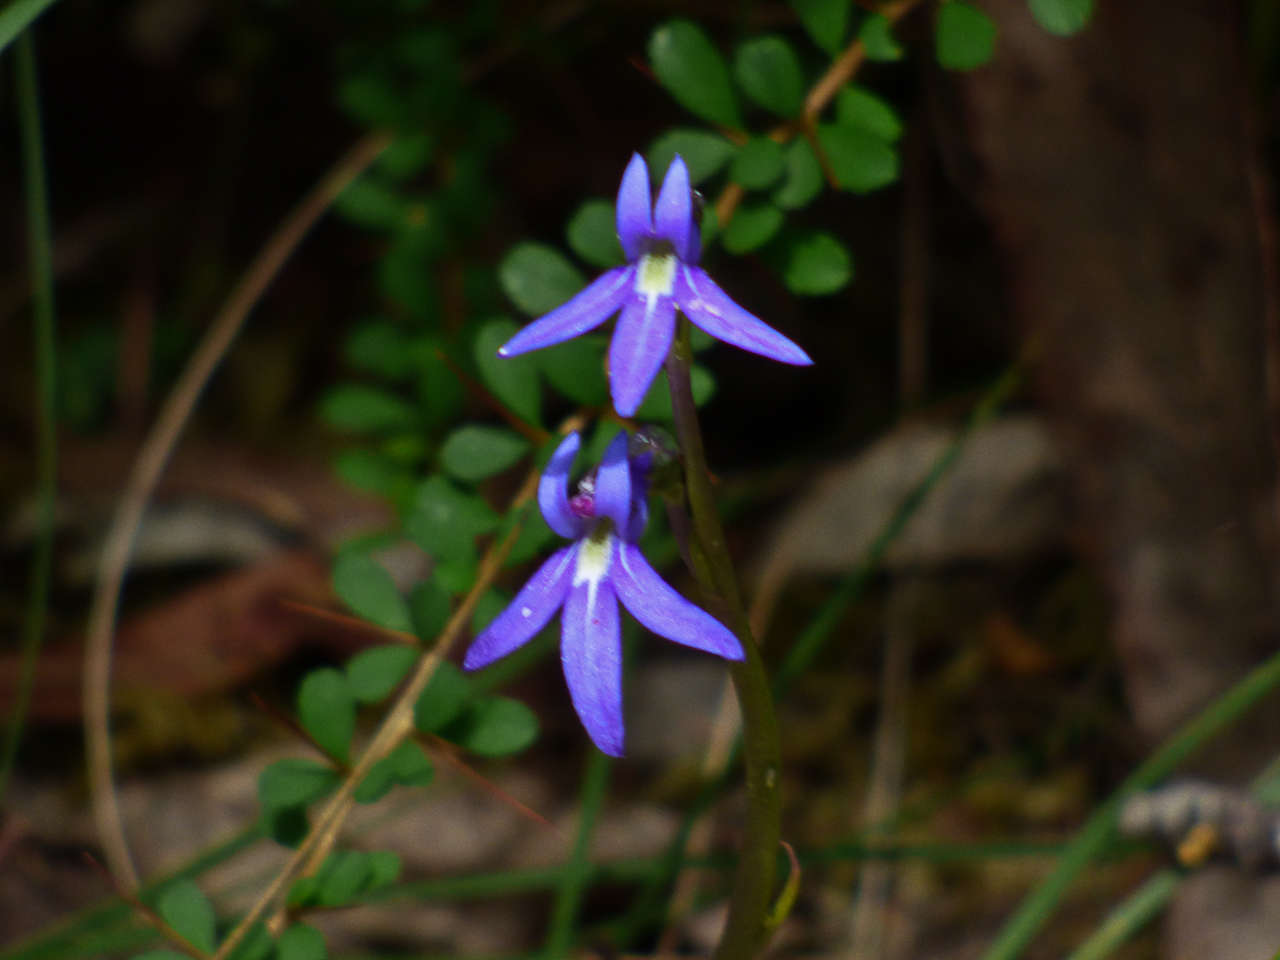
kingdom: Plantae
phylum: Tracheophyta
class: Magnoliopsida
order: Asterales
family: Campanulaceae
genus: Lobelia
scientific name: Lobelia gibbosa
